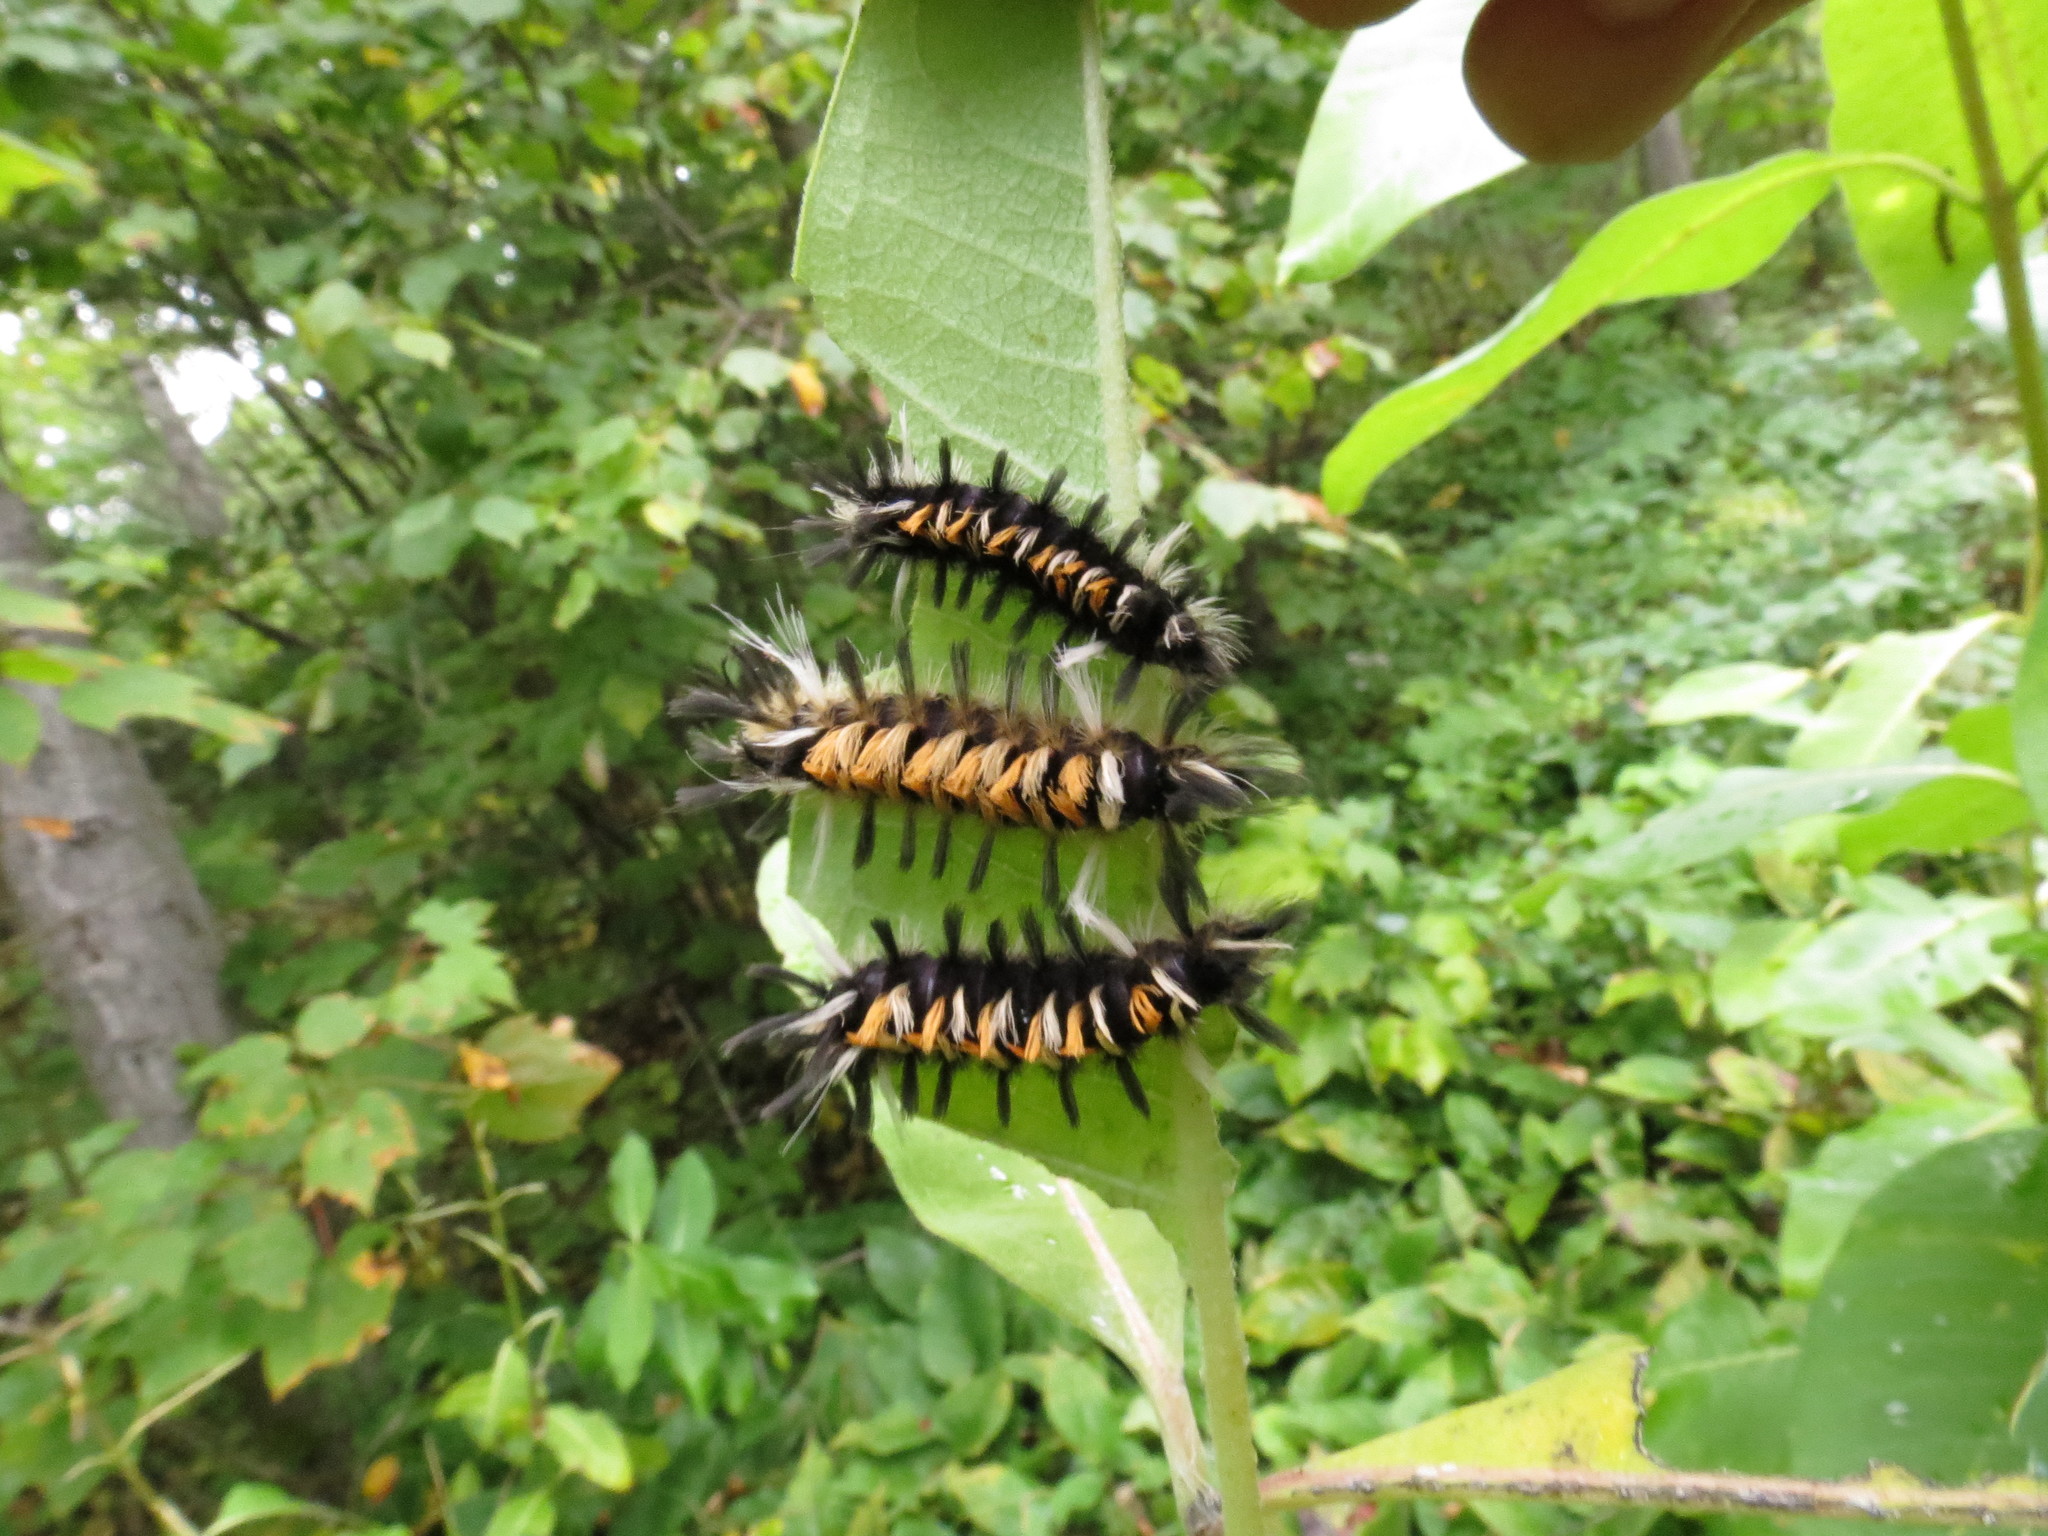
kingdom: Animalia
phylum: Arthropoda
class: Insecta
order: Lepidoptera
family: Erebidae
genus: Euchaetes
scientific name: Euchaetes egle
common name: Milkweed tussock moth
